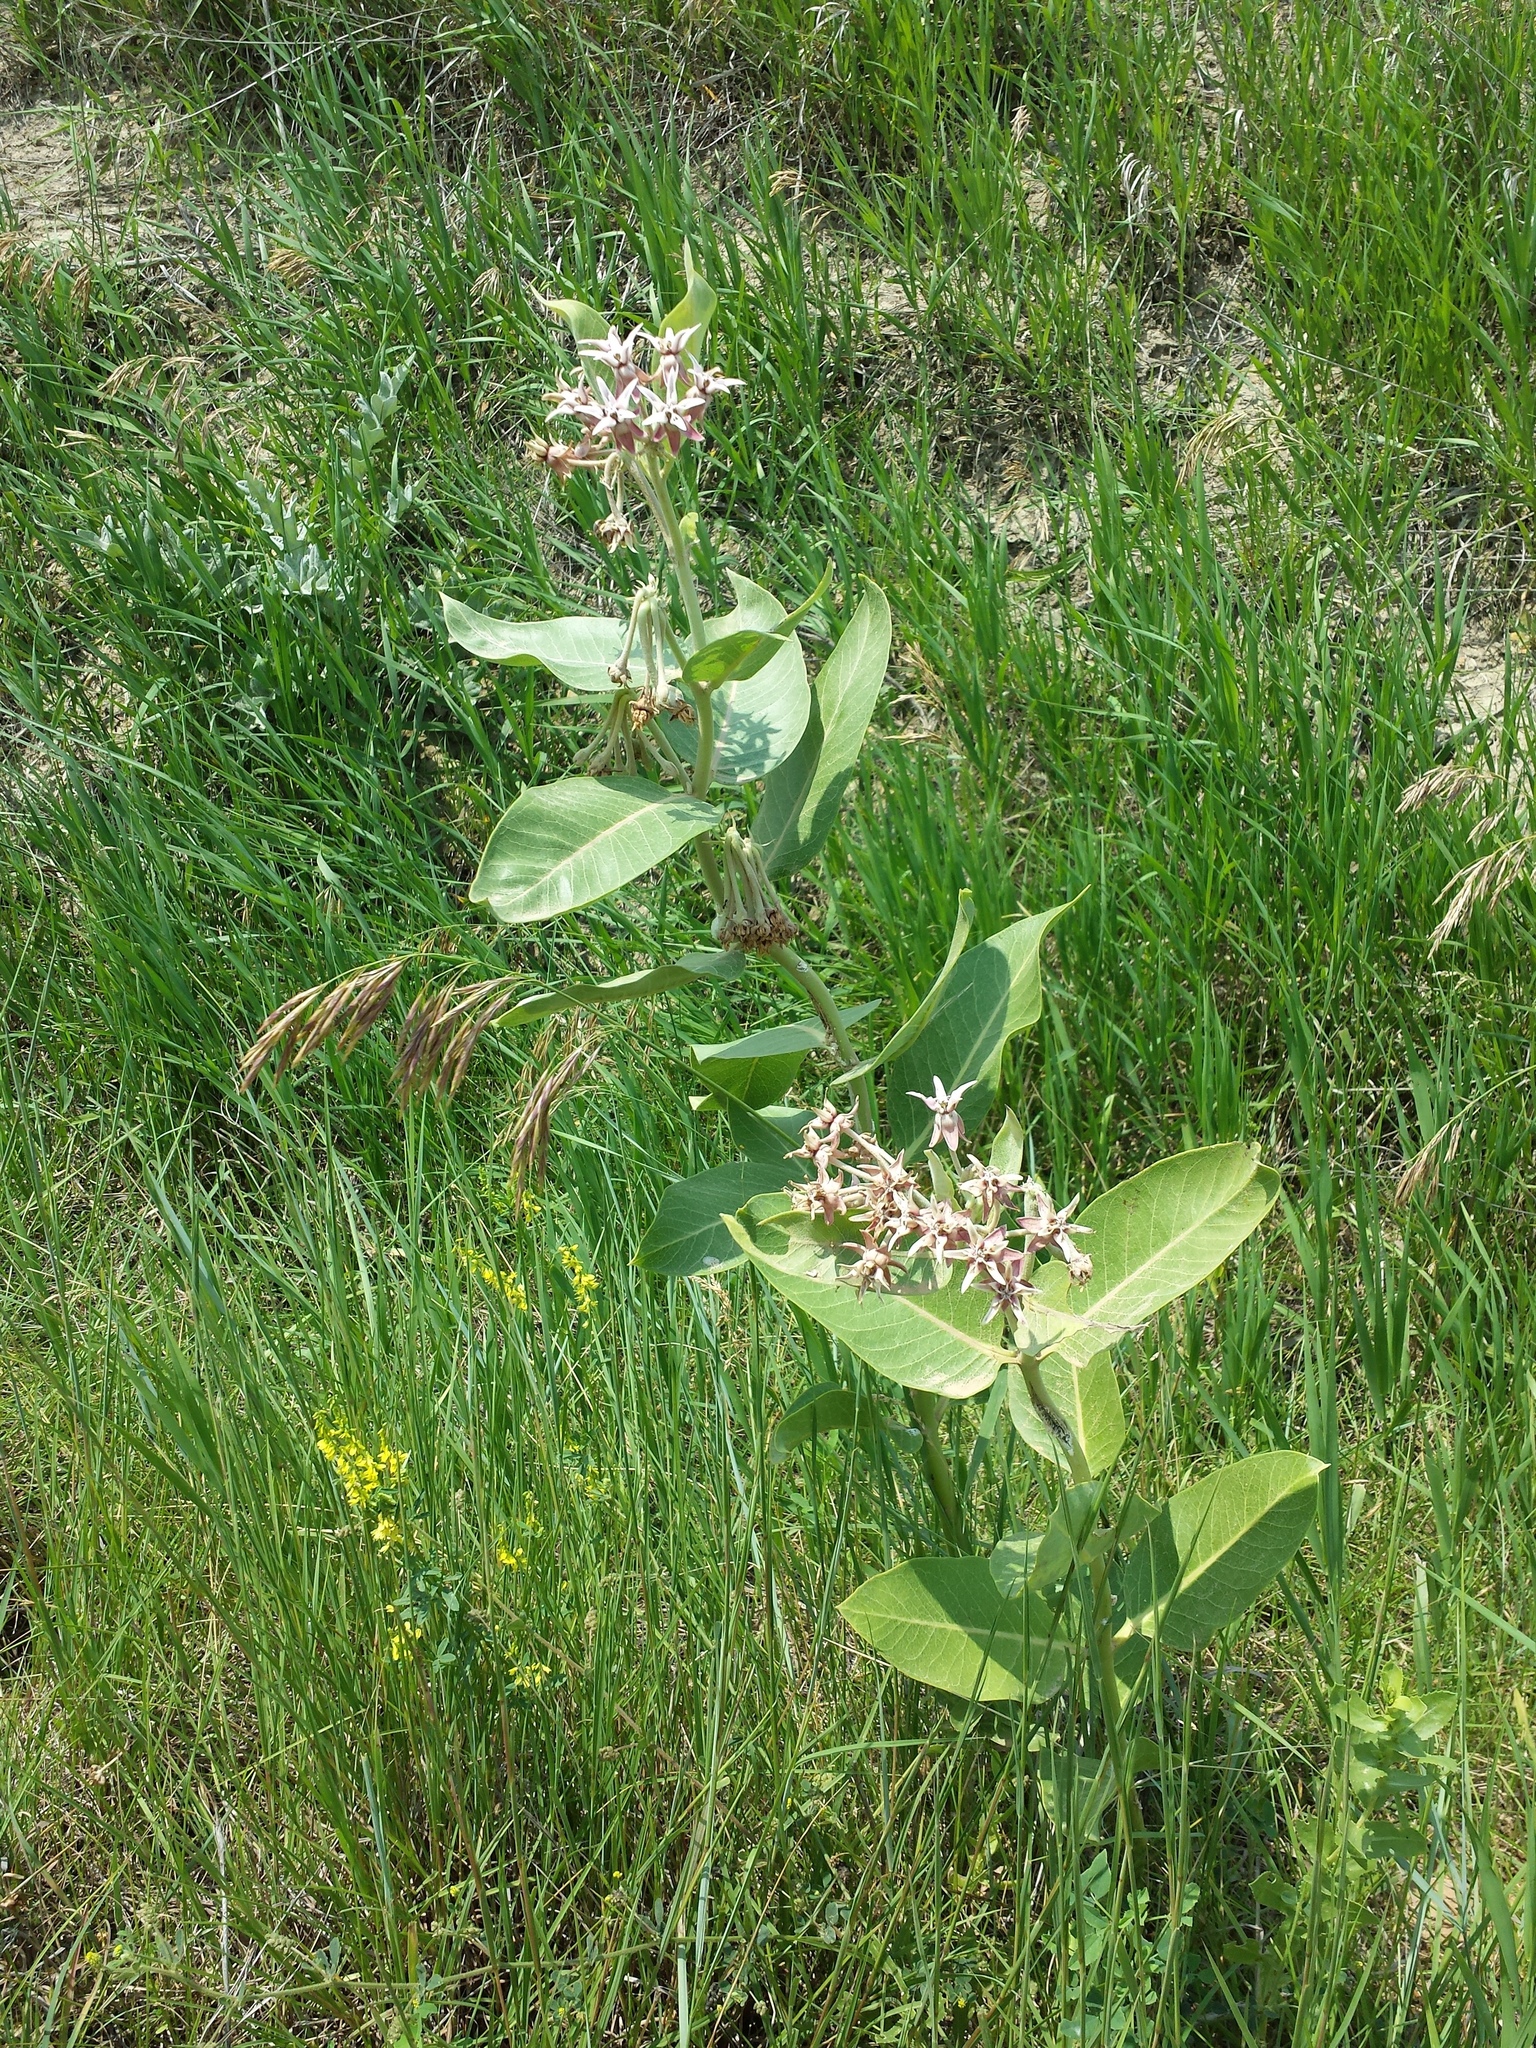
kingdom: Plantae
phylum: Tracheophyta
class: Magnoliopsida
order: Gentianales
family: Apocynaceae
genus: Asclepias
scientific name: Asclepias speciosa
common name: Showy milkweed
